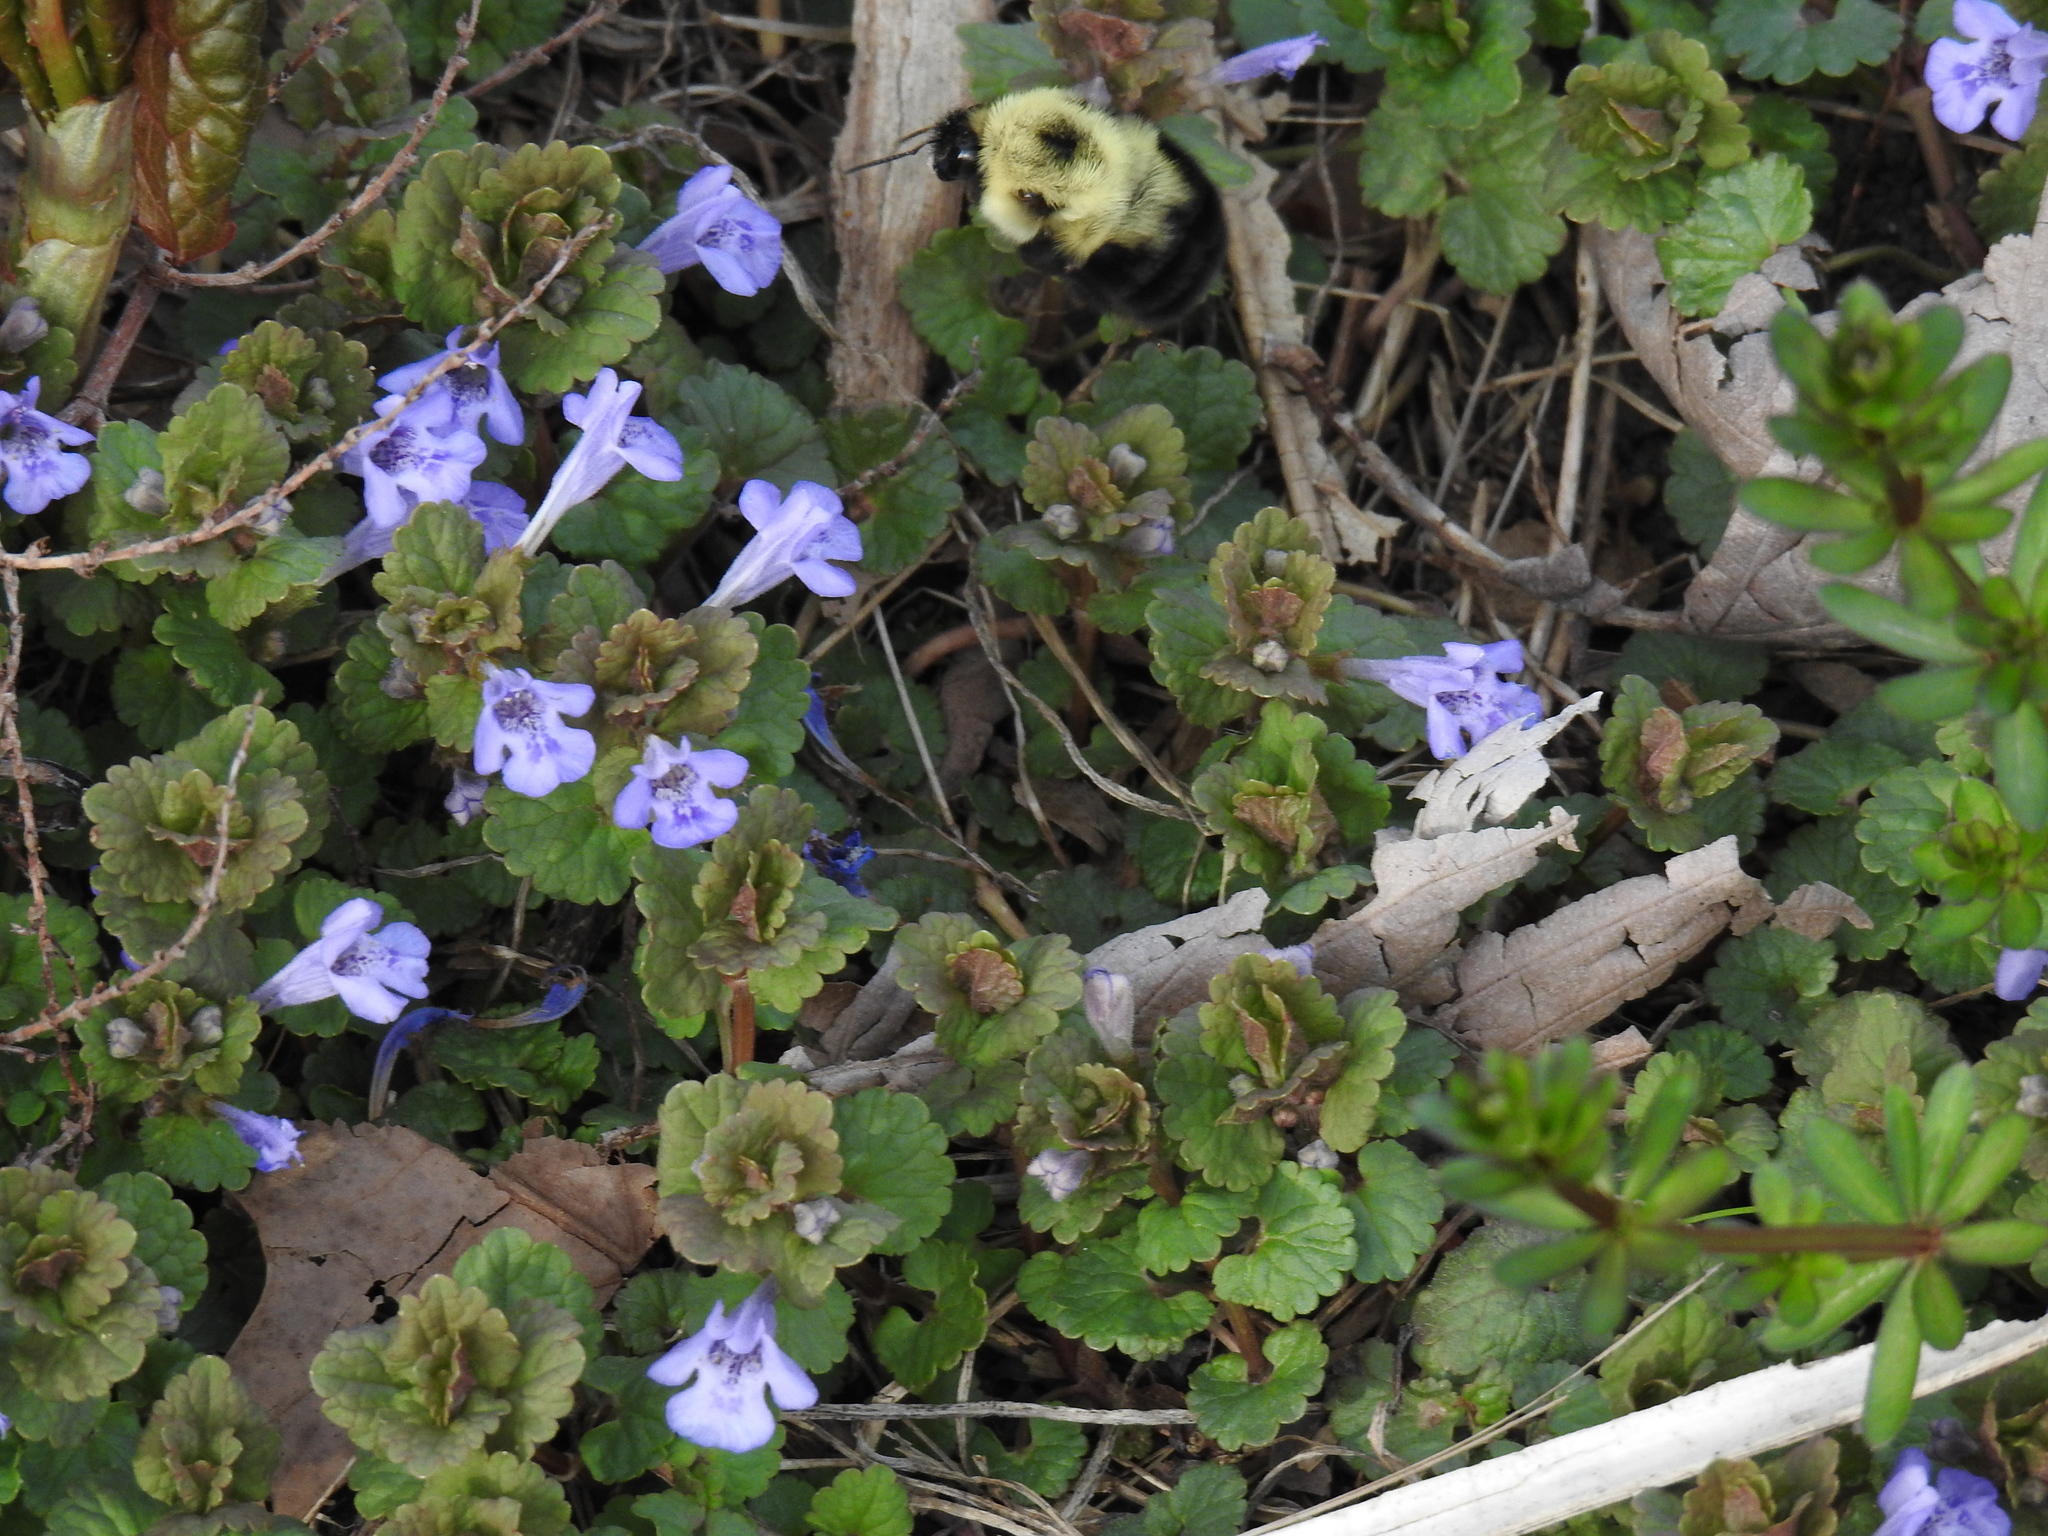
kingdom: Plantae
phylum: Tracheophyta
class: Magnoliopsida
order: Lamiales
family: Lamiaceae
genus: Glechoma
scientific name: Glechoma hederacea
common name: Ground ivy
